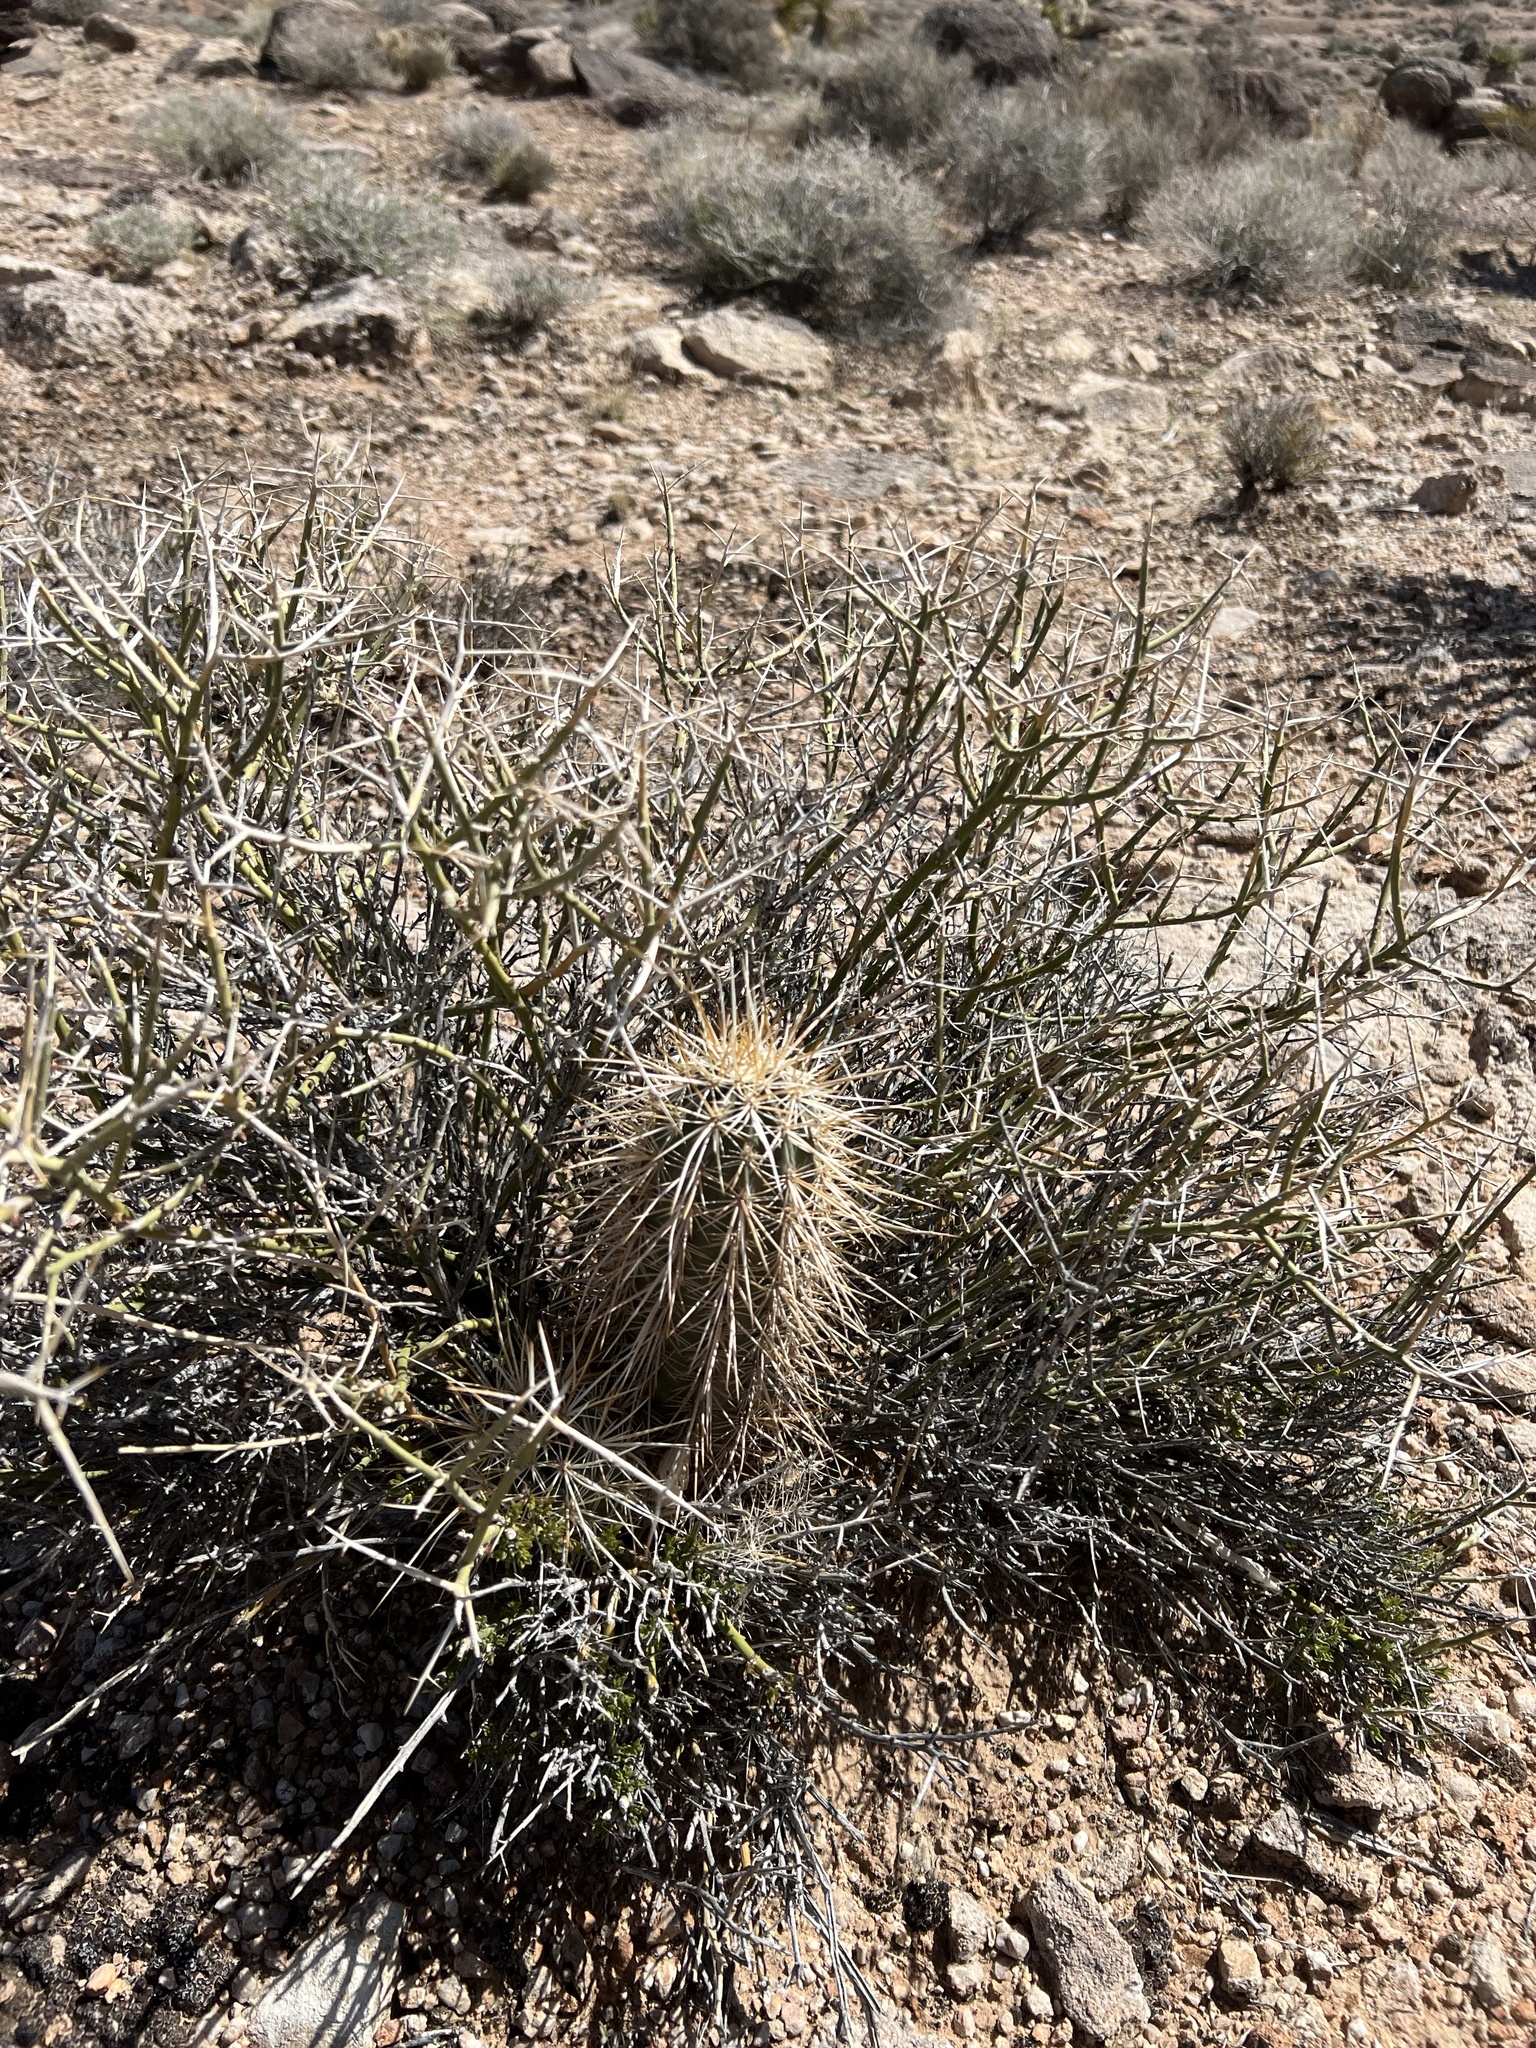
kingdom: Plantae
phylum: Tracheophyta
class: Magnoliopsida
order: Caryophyllales
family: Cactaceae
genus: Echinocereus
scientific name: Echinocereus engelmannii
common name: Engelmann's hedgehog cactus
